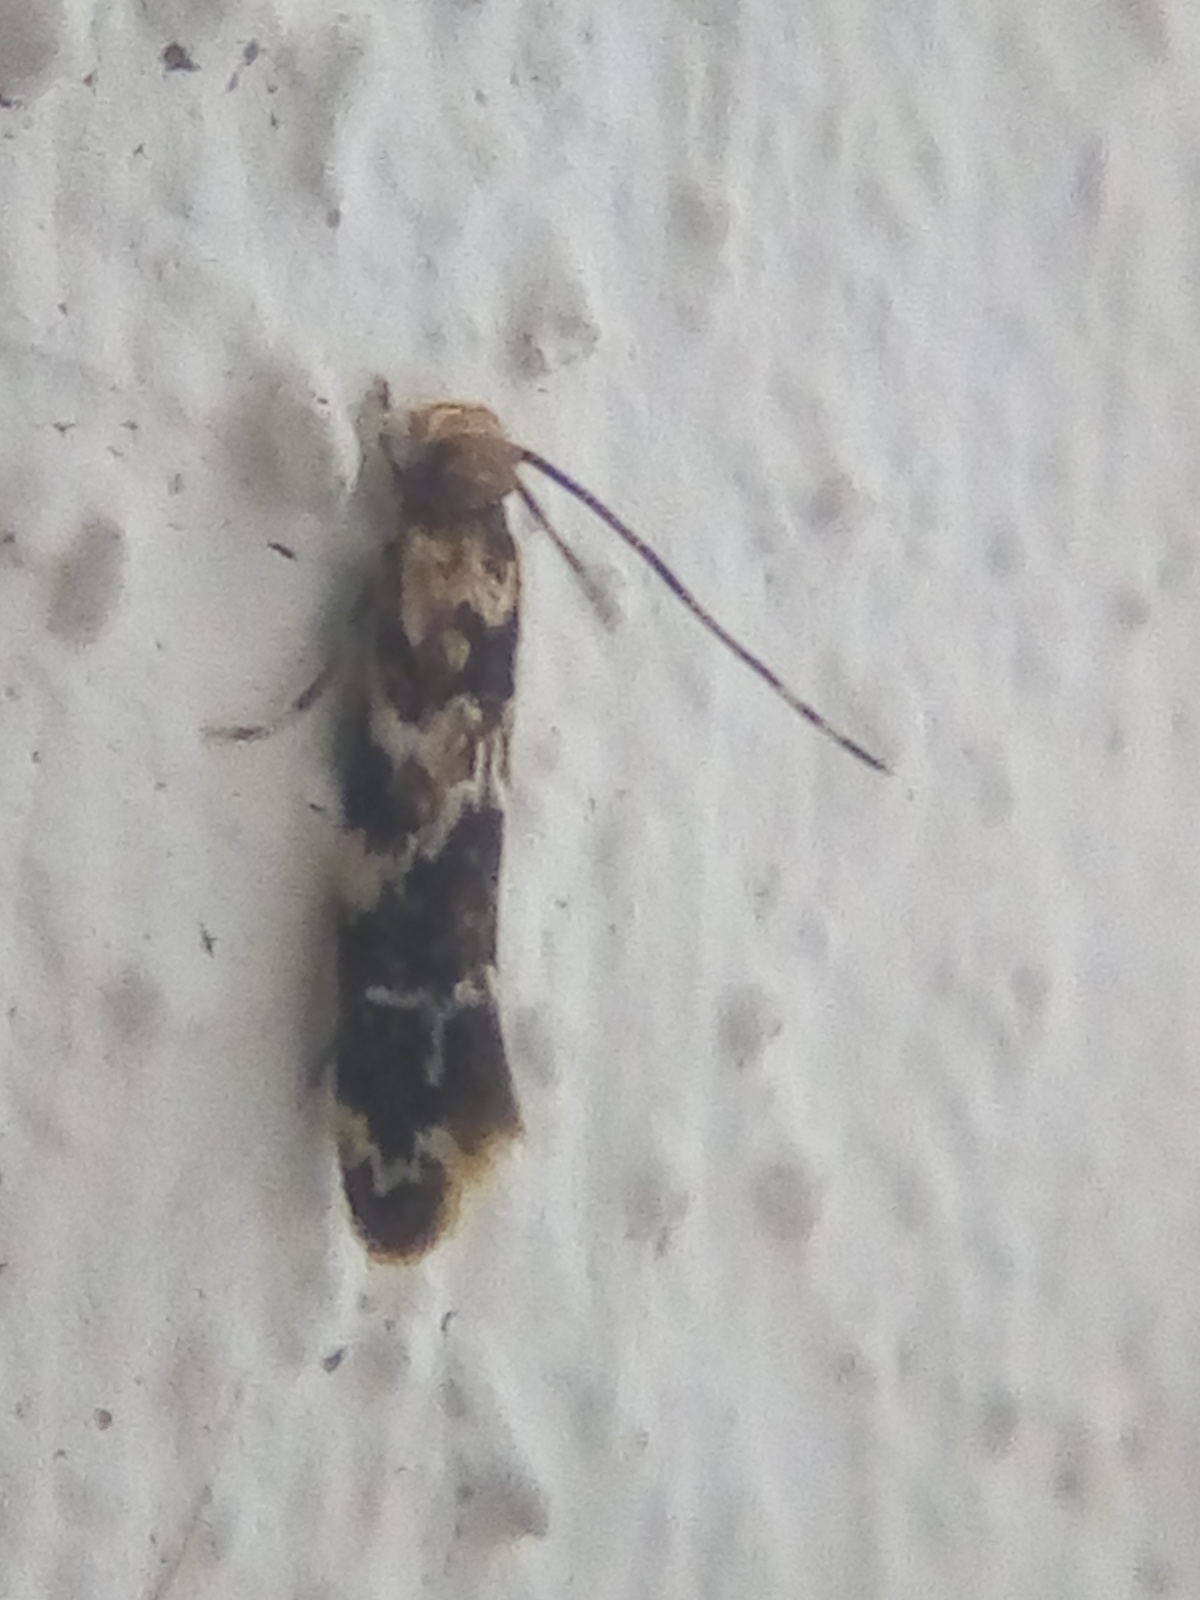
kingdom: Animalia
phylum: Arthropoda
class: Insecta
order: Lepidoptera
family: Dryadaulidae
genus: Dryadaula
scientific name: Dryadaula pactolia
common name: Cellar clothes
